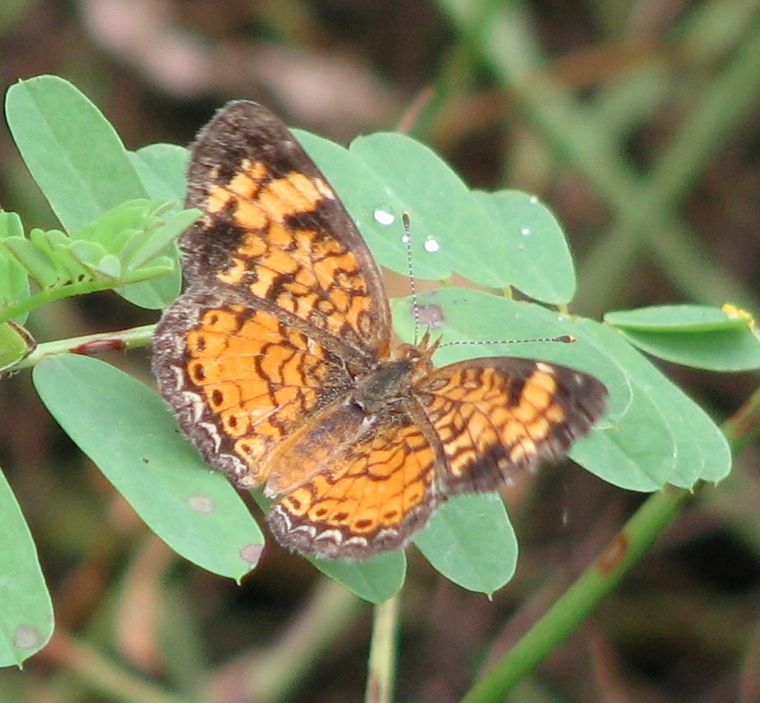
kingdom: Animalia
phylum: Arthropoda
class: Insecta
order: Lepidoptera
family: Nymphalidae
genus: Phyciodes
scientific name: Phyciodes tharos
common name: Pearl crescent
